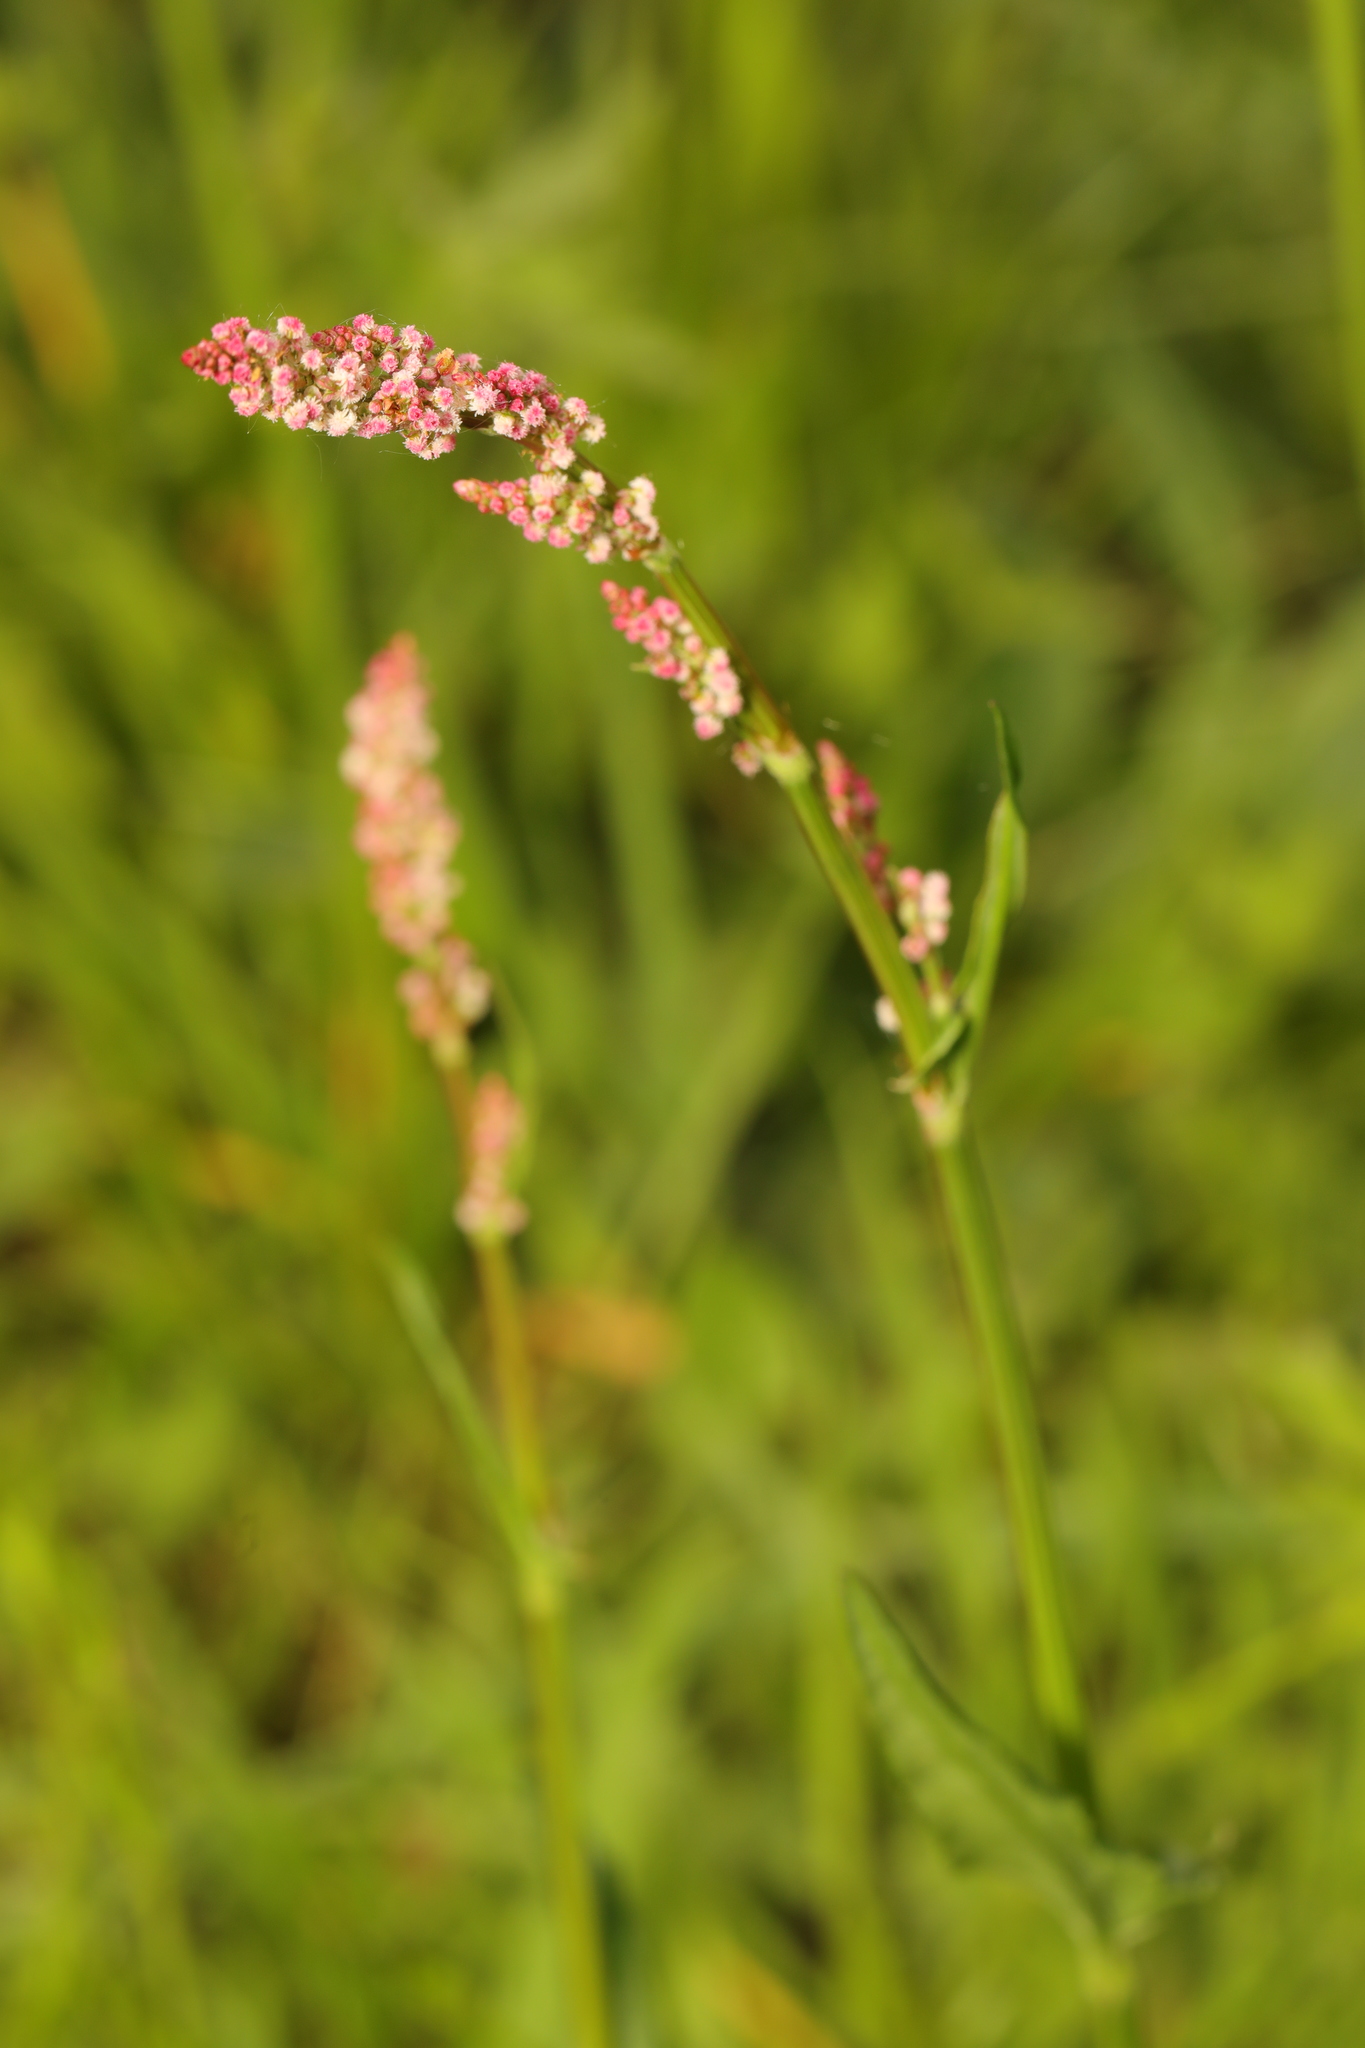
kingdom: Plantae
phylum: Tracheophyta
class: Magnoliopsida
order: Caryophyllales
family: Polygonaceae
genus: Rumex
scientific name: Rumex acetosa
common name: Garden sorrel
